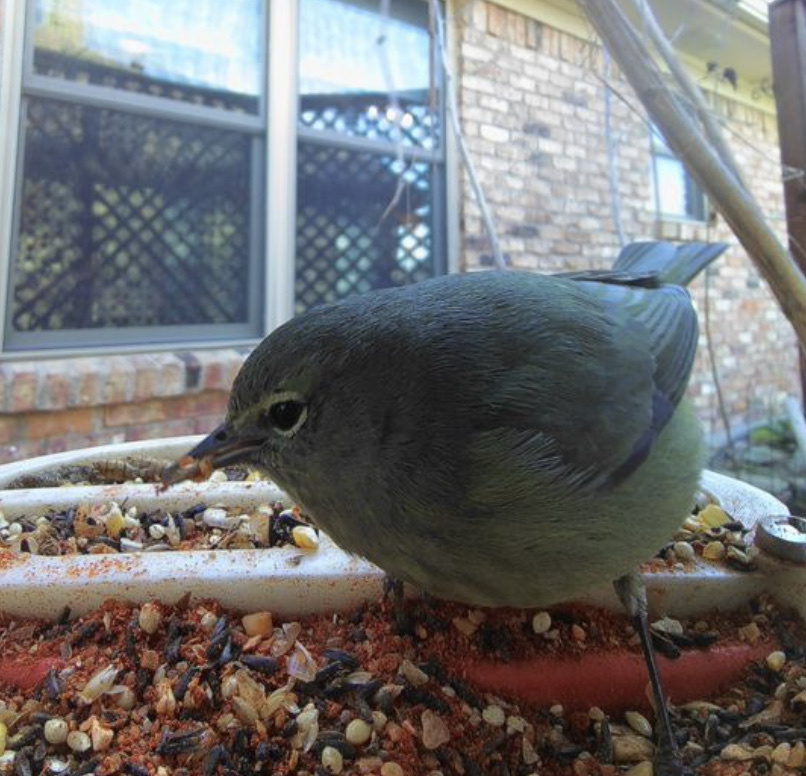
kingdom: Animalia
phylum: Chordata
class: Aves
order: Passeriformes
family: Parulidae
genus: Leiothlypis
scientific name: Leiothlypis celata
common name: Orange-crowned warbler
